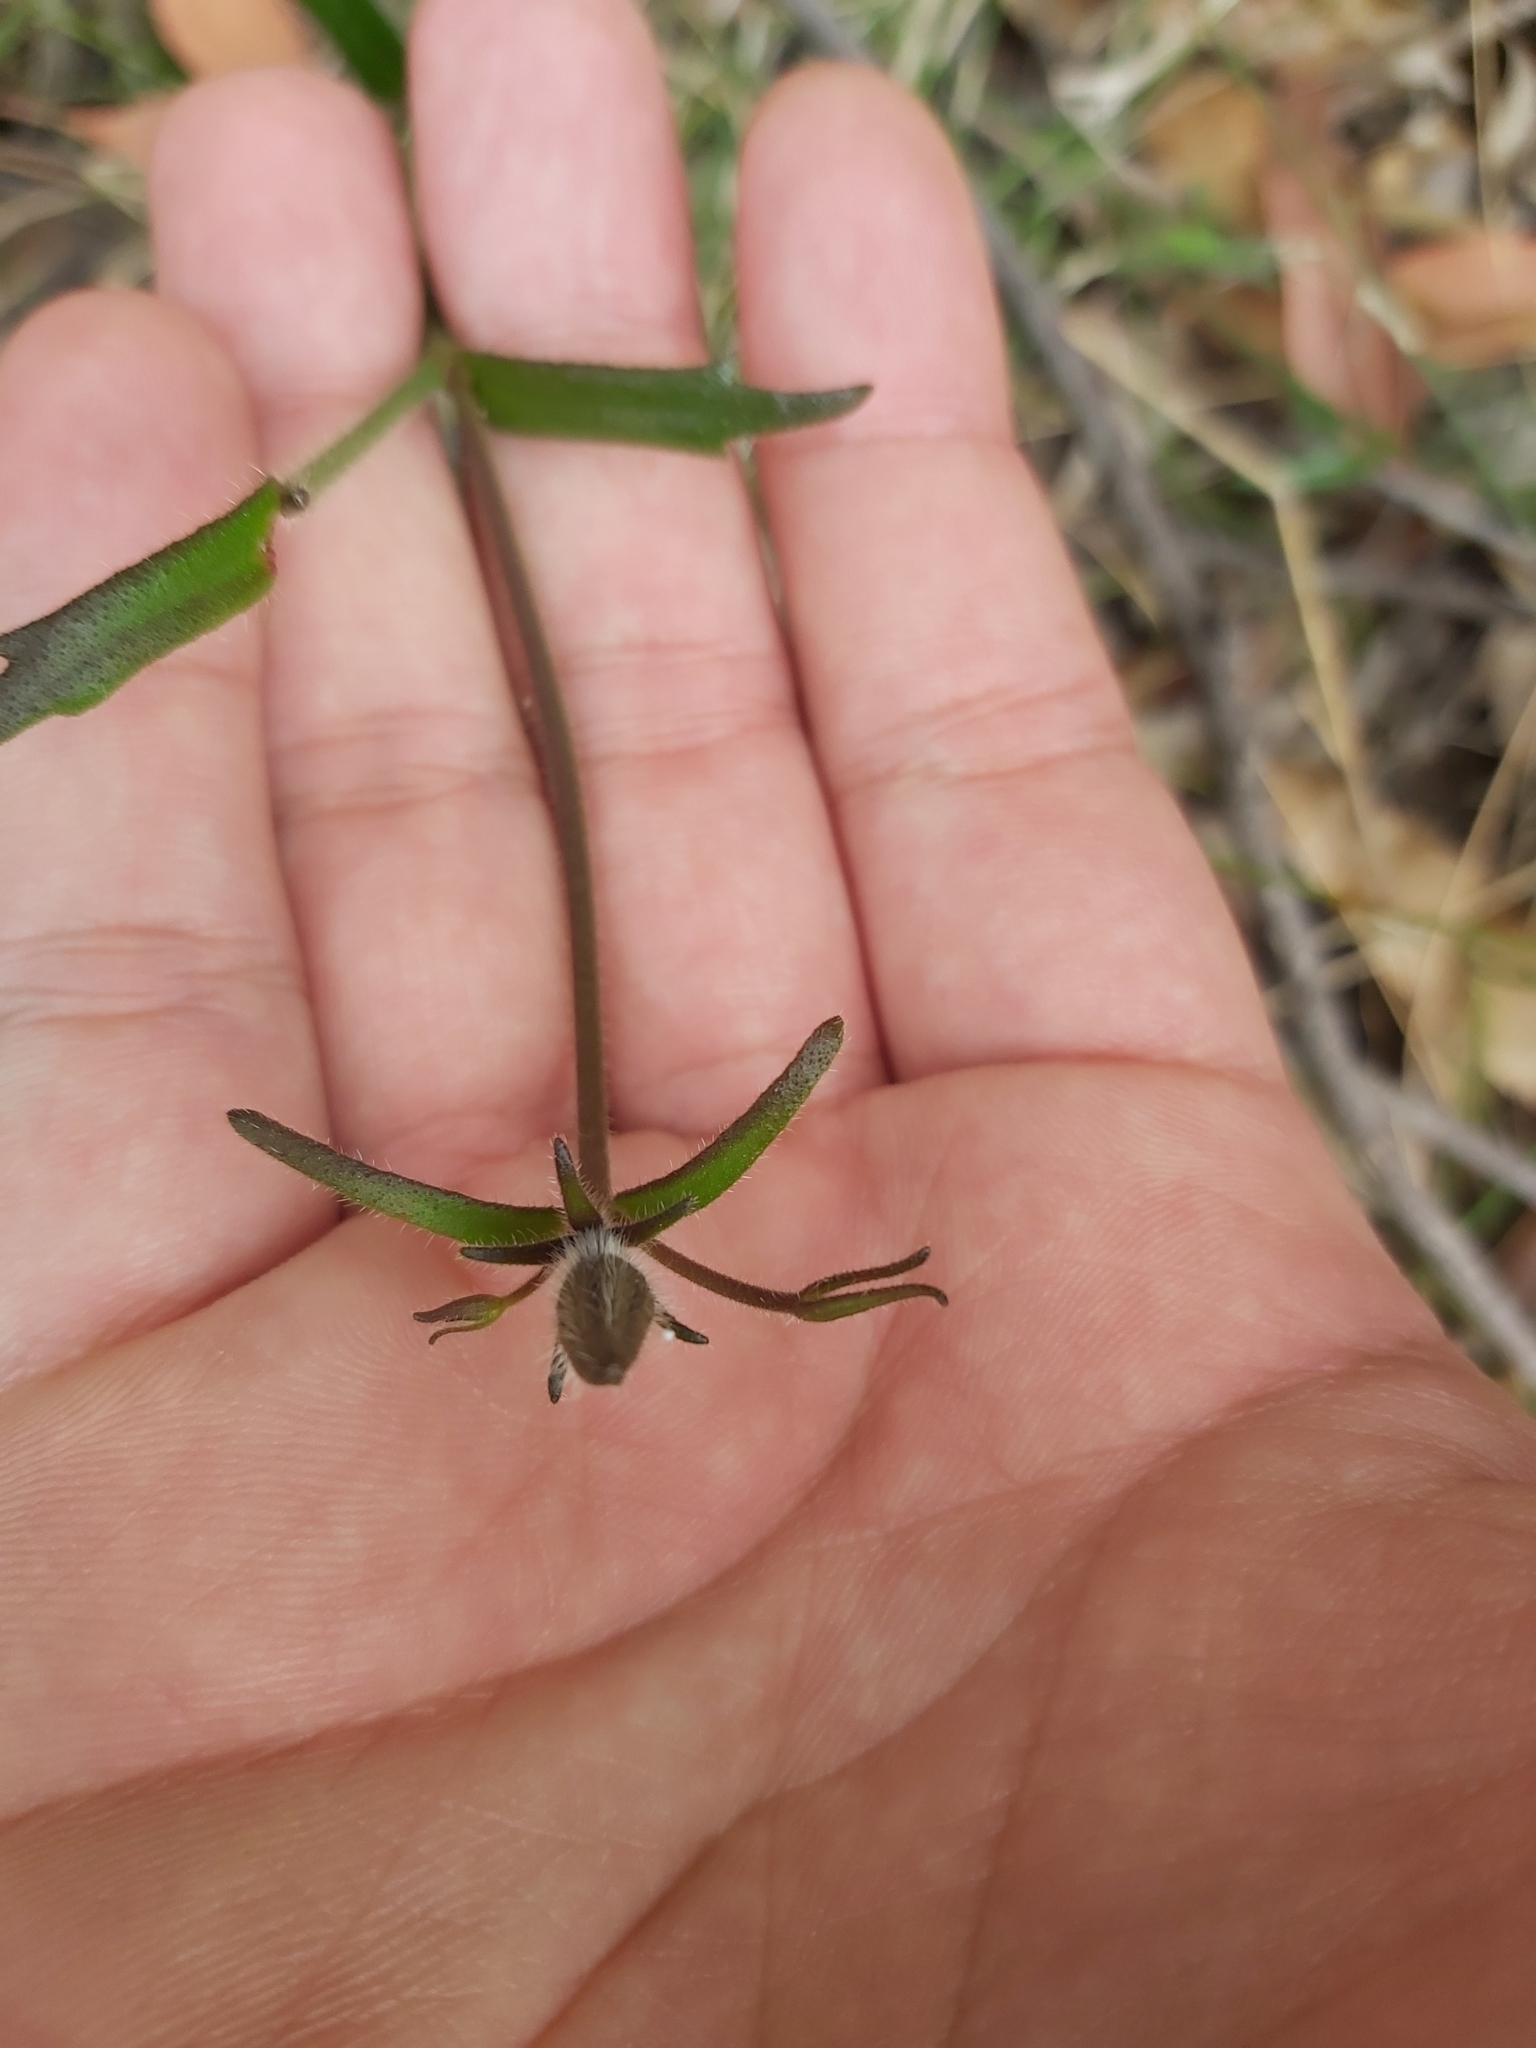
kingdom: Plantae
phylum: Tracheophyta
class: Magnoliopsida
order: Asterales
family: Goodeniaceae
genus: Scaevola
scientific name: Scaevola ramosissima
